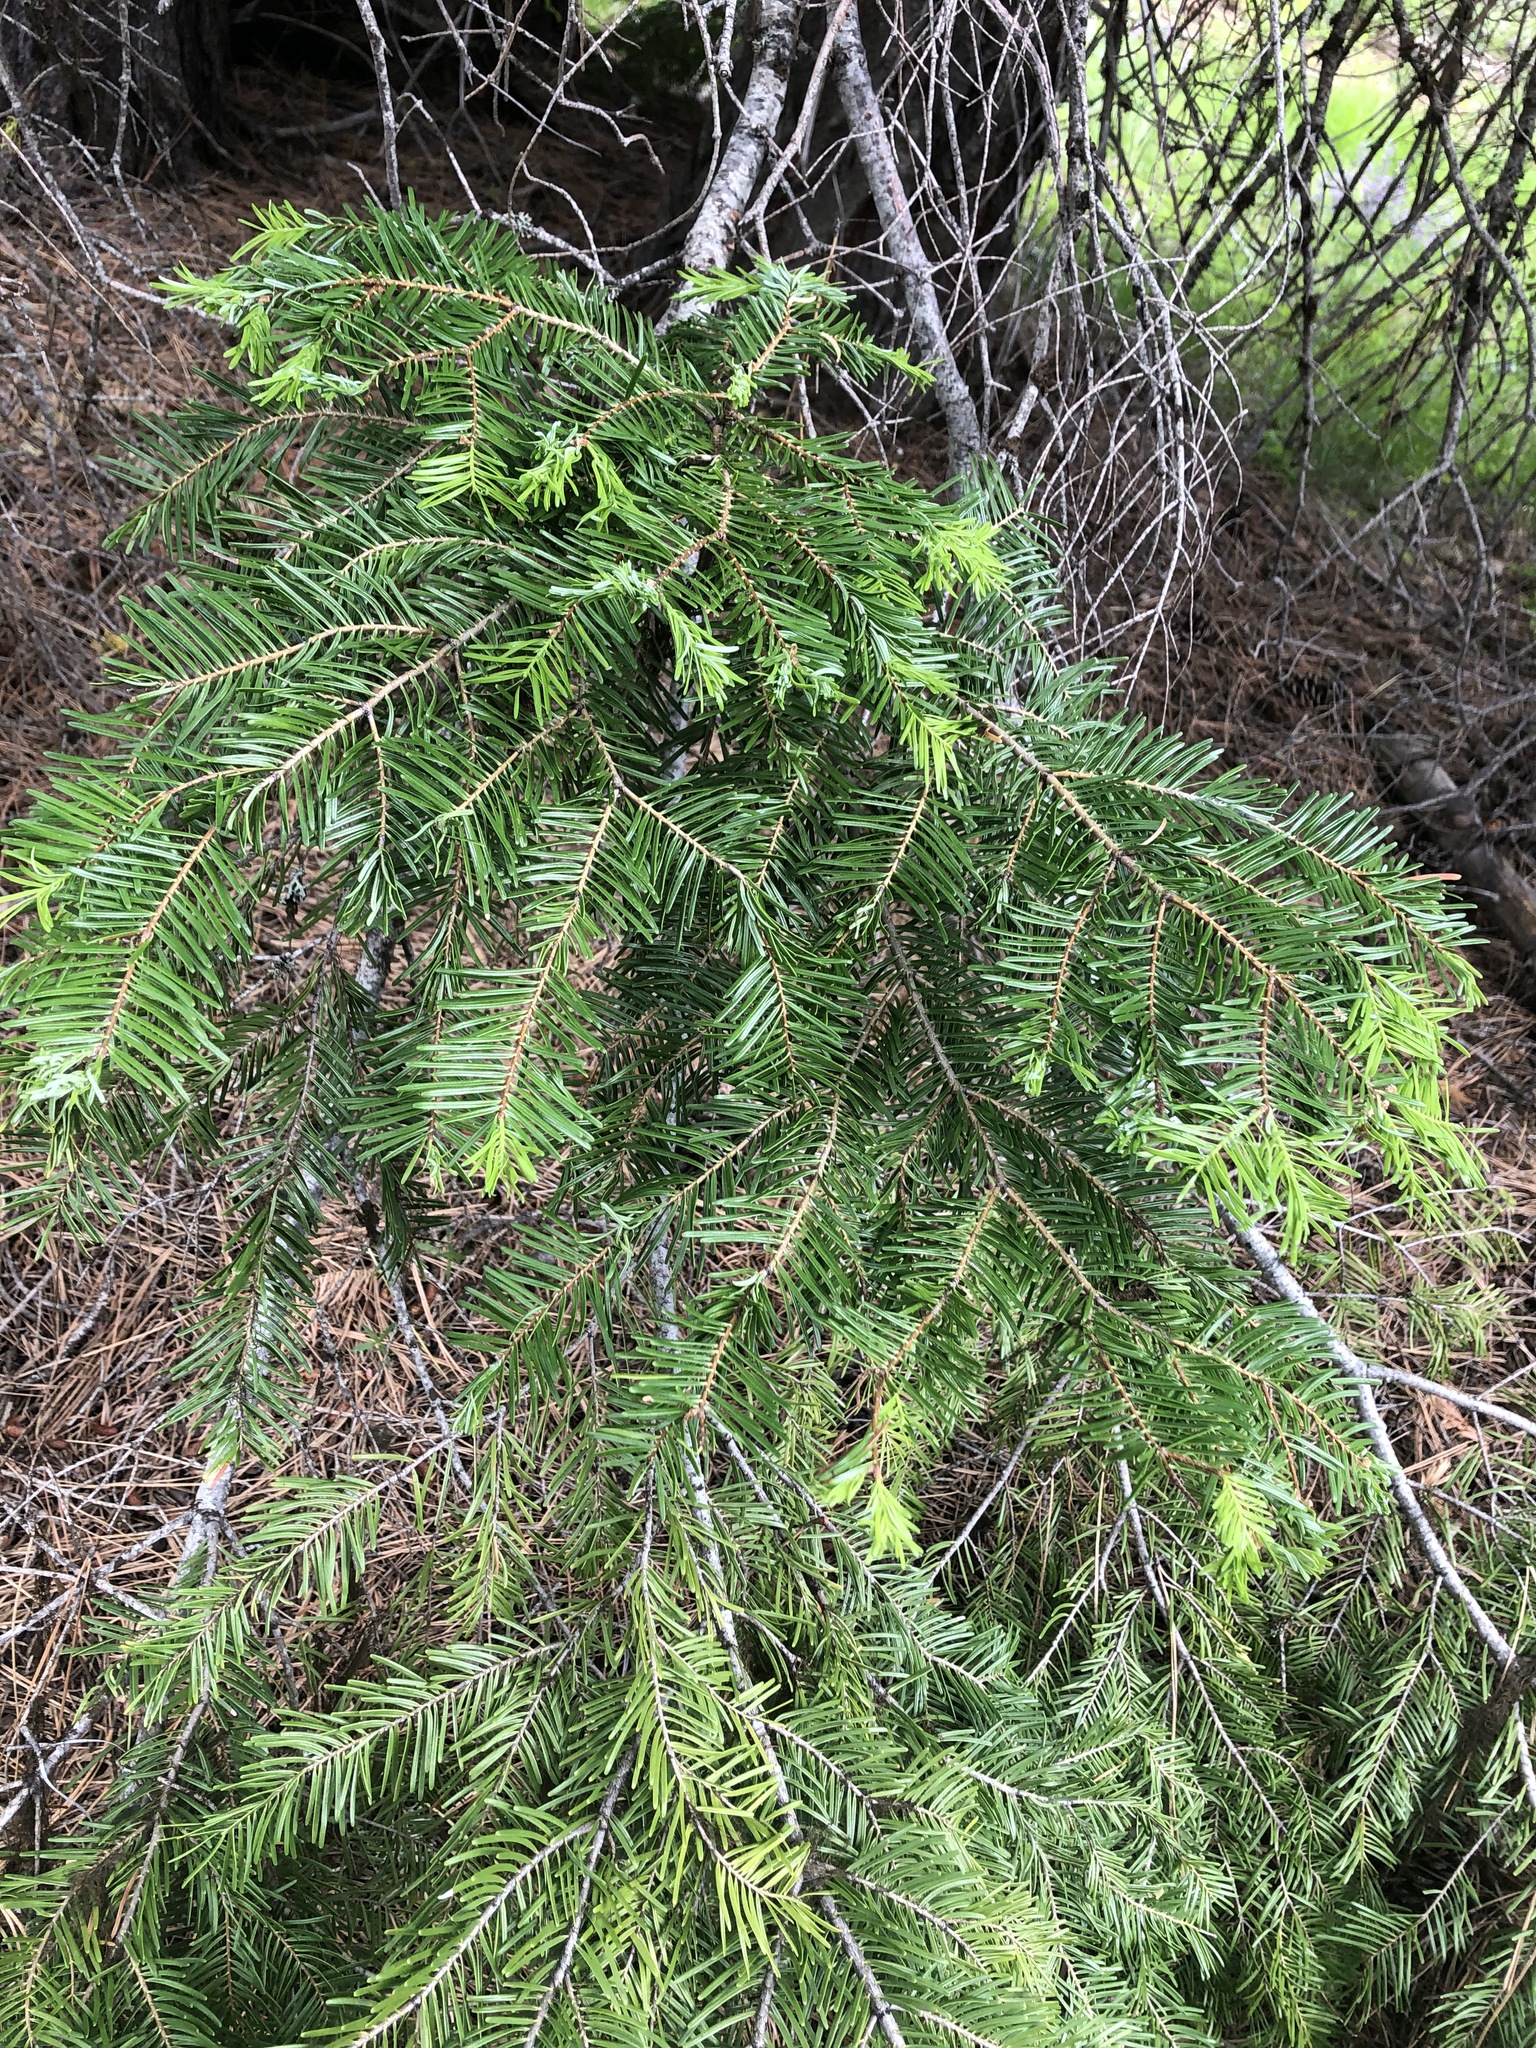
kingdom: Plantae
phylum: Tracheophyta
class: Pinopsida
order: Pinales
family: Pinaceae
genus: Abies
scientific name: Abies grandis
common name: Giant fir
